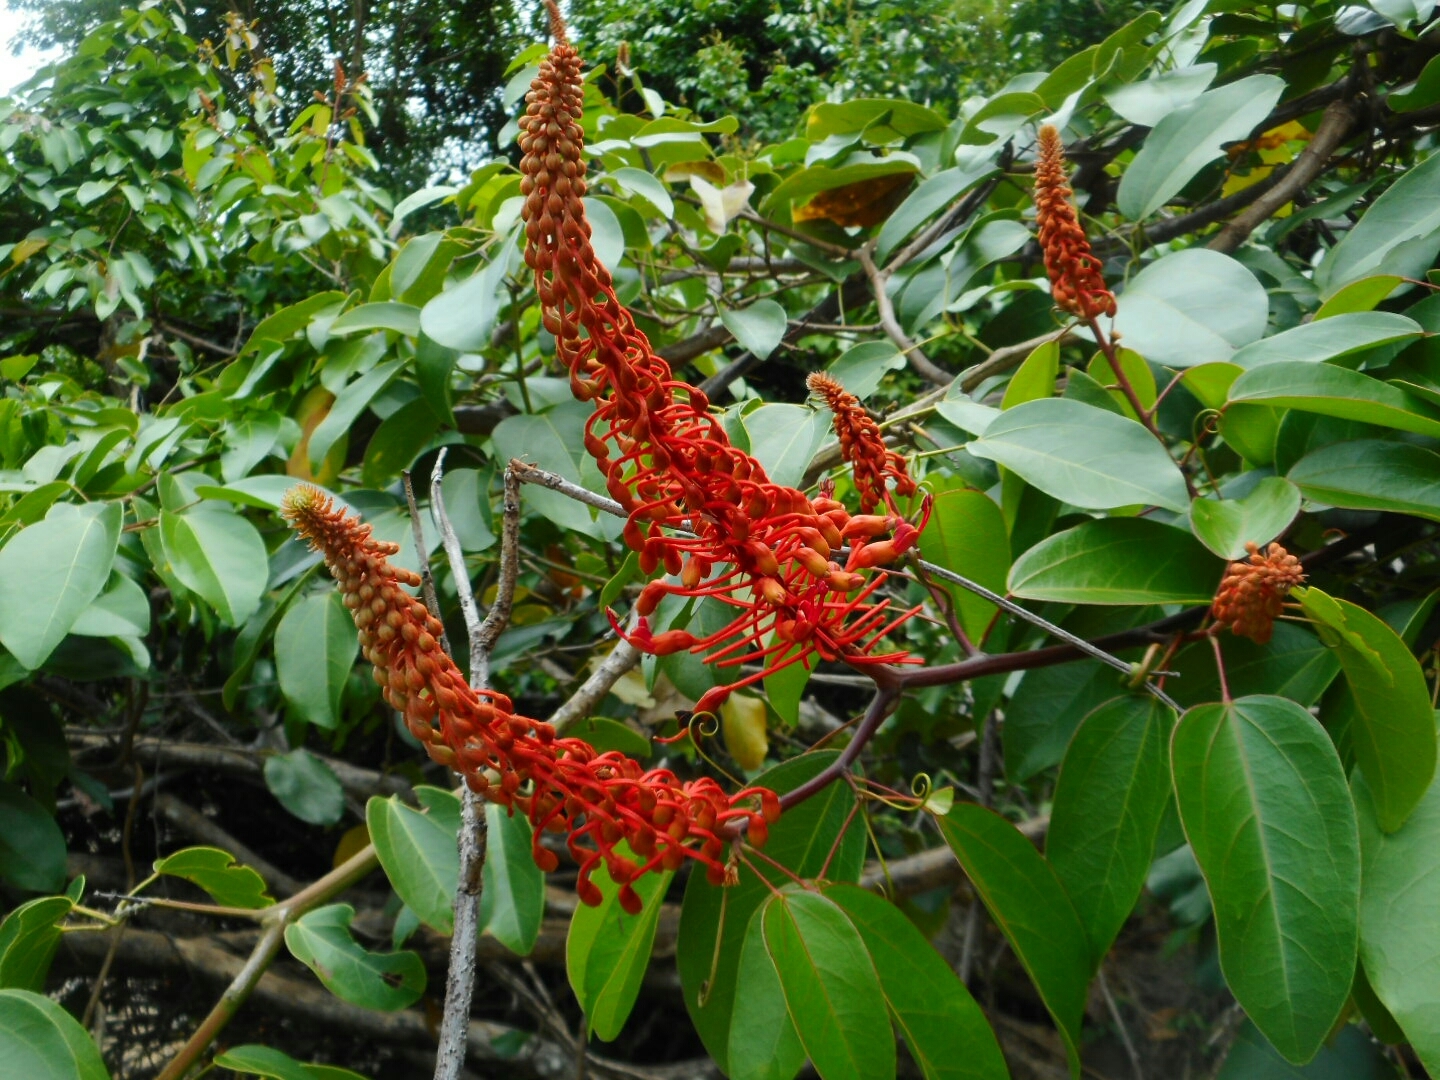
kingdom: Plantae
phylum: Tracheophyta
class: Magnoliopsida
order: Fabales
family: Fabaceae
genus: Phanera
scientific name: Phanera cardinalis
